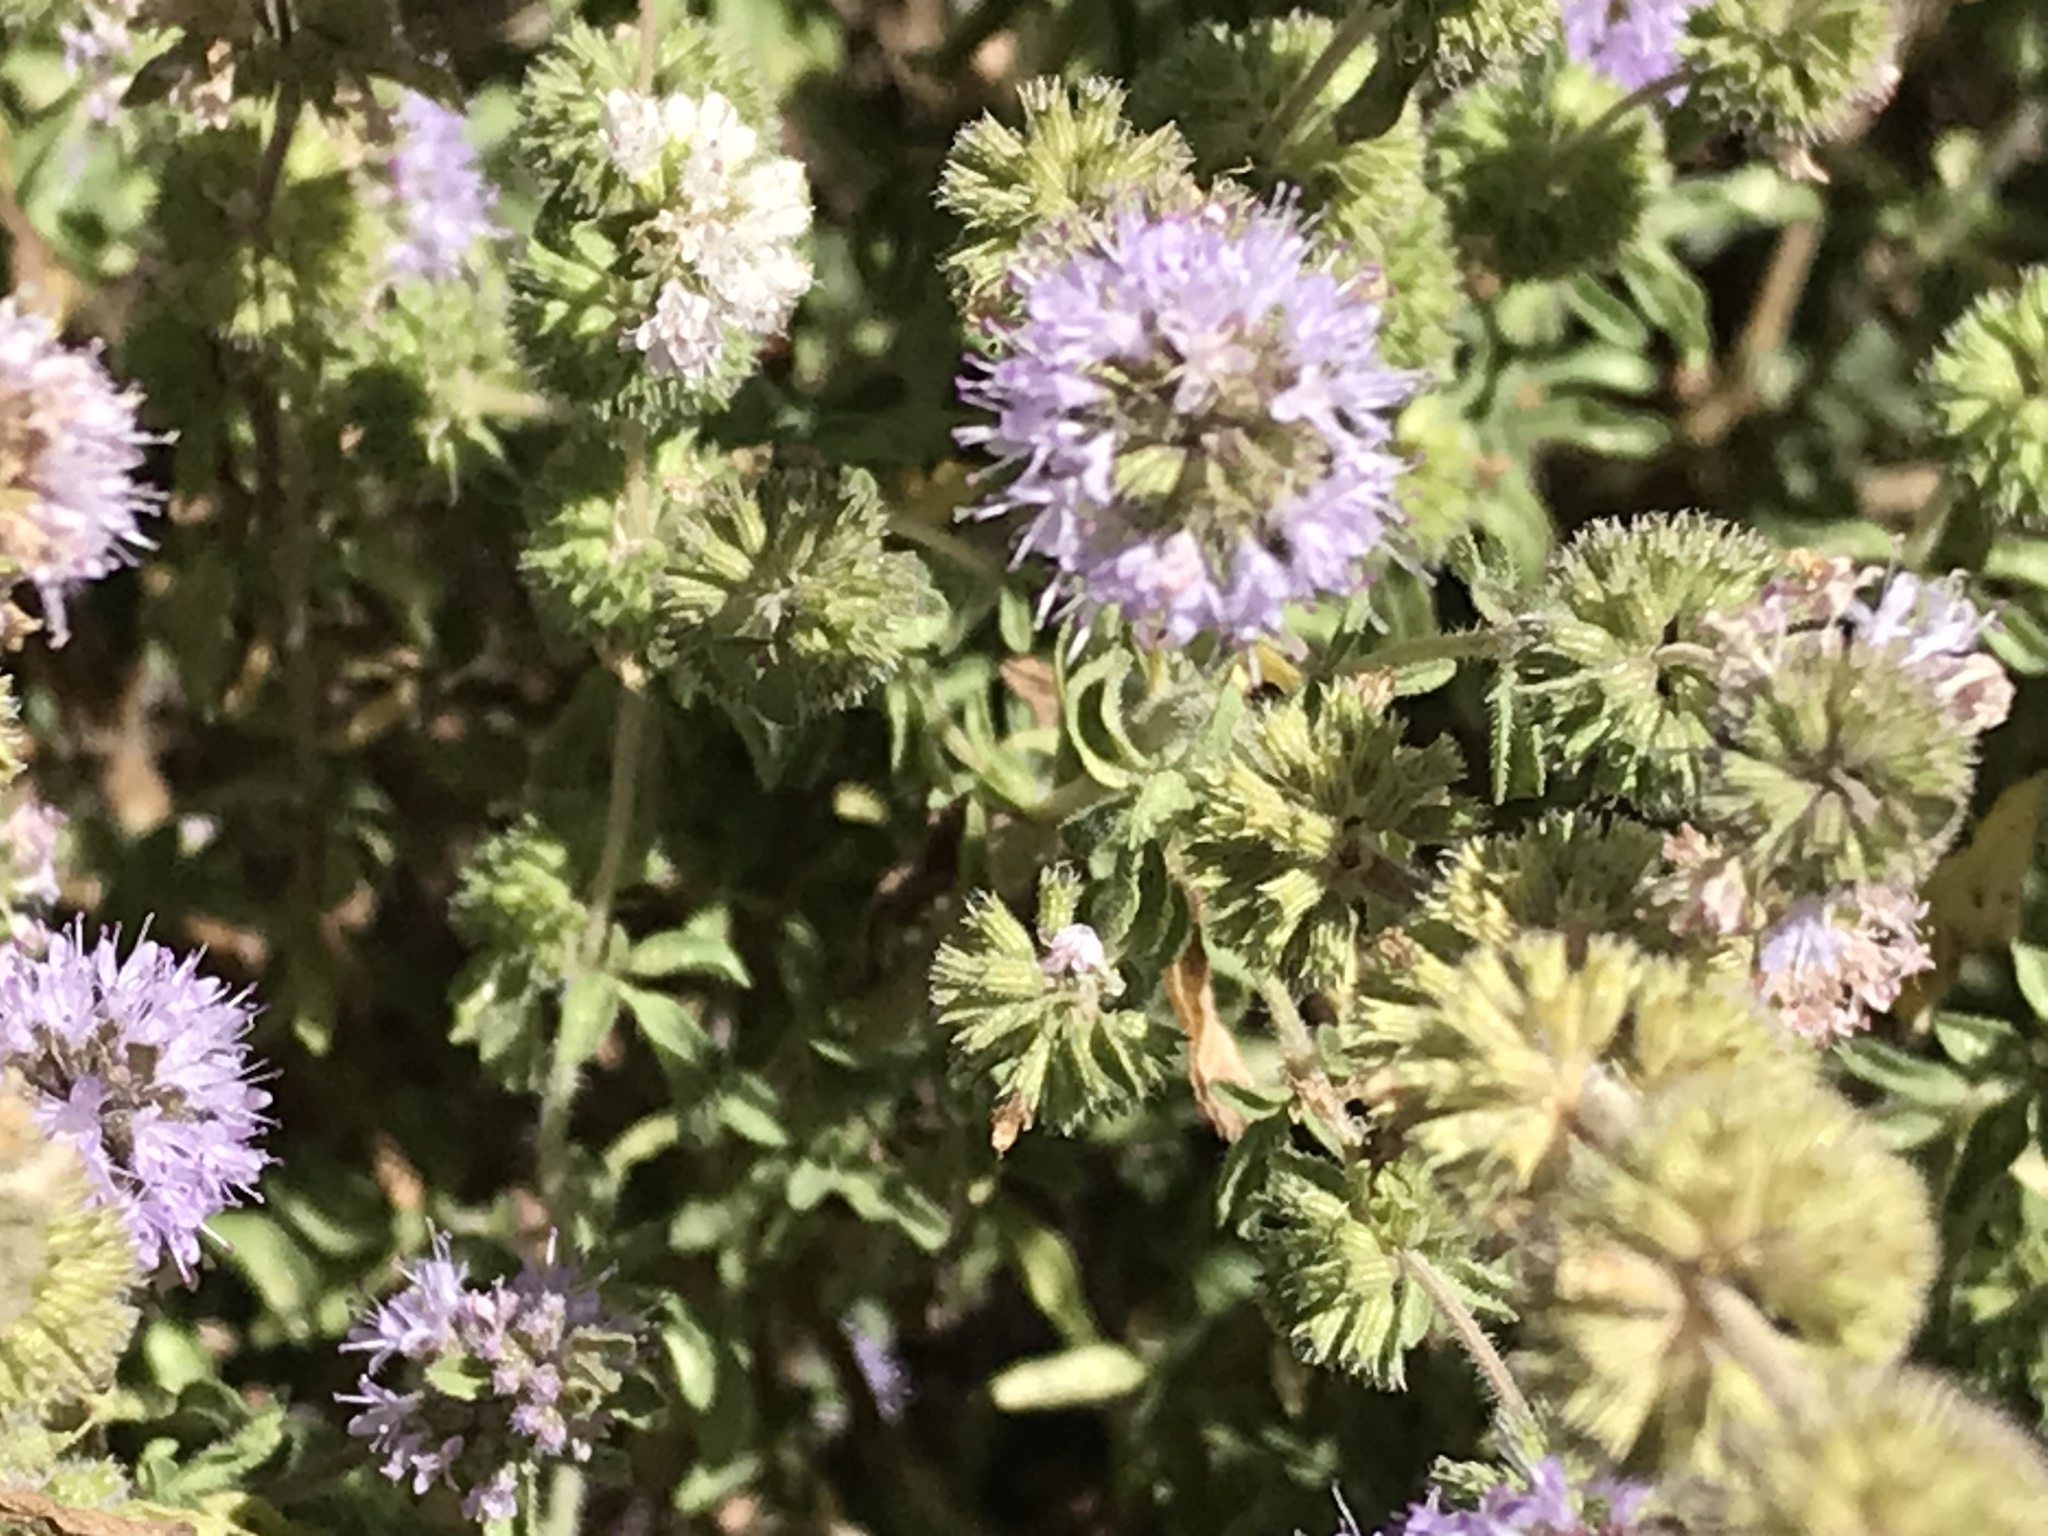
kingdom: Plantae
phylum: Tracheophyta
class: Magnoliopsida
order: Lamiales
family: Lamiaceae
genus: Mentha
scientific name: Mentha pulegium
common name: Pennyroyal
